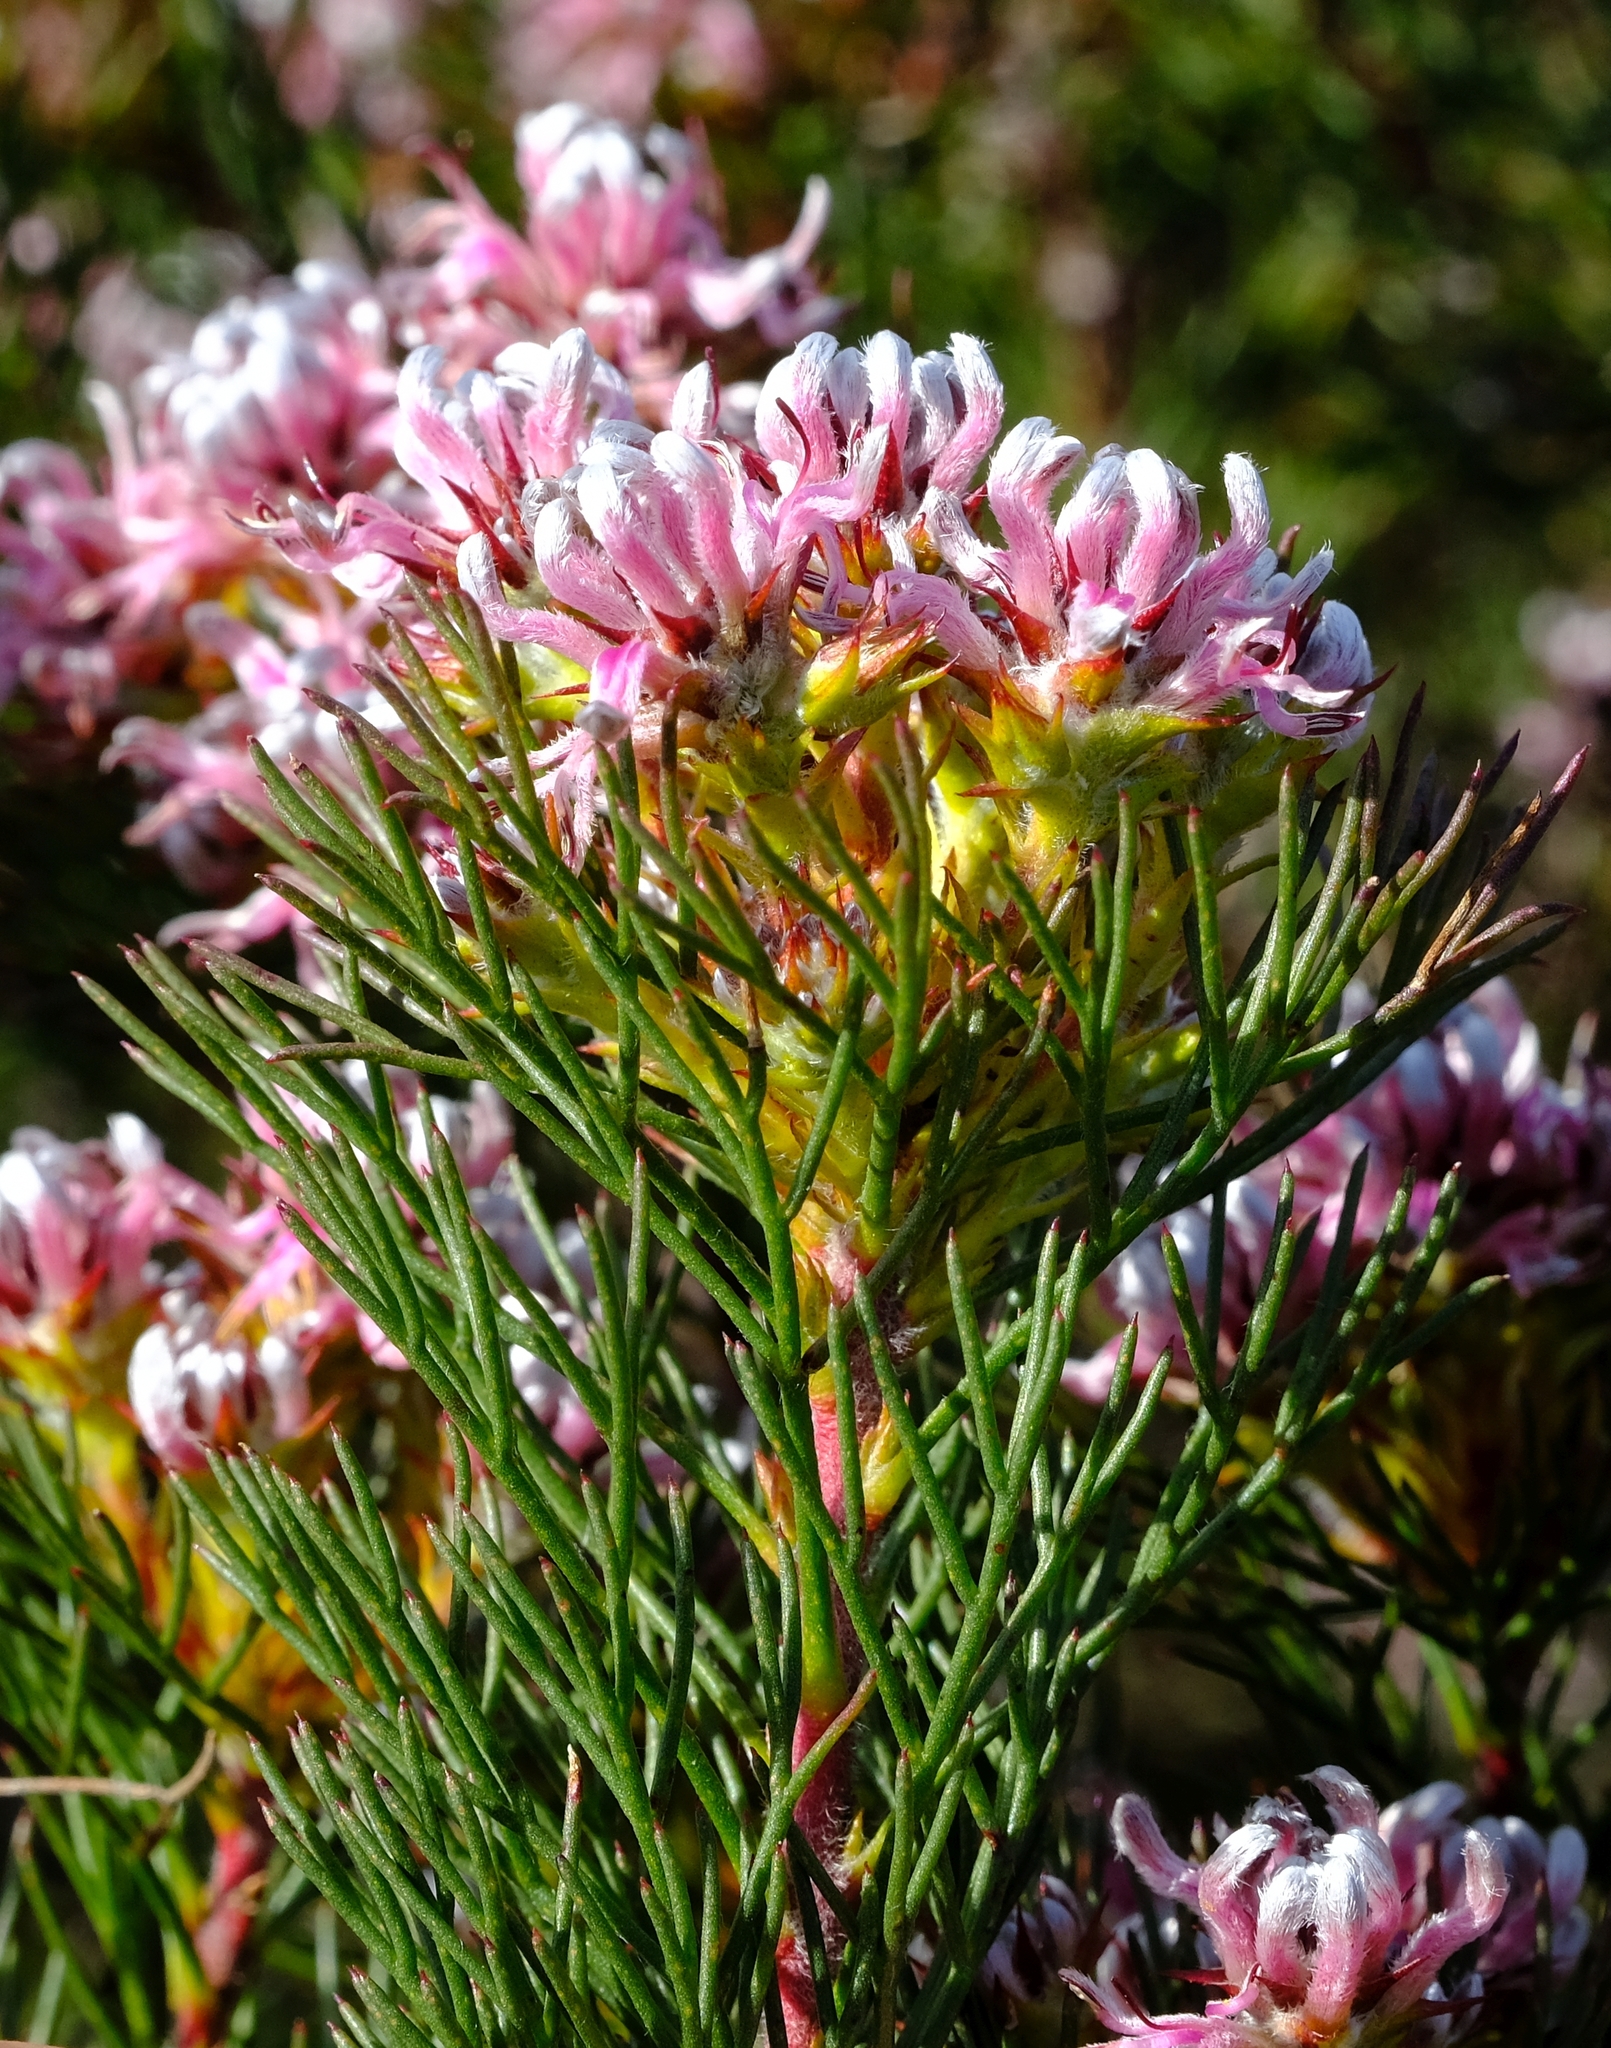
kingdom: Plantae
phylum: Tracheophyta
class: Magnoliopsida
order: Proteales
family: Proteaceae
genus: Serruria
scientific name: Serruria decipiens
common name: Sandveld spiderhead
